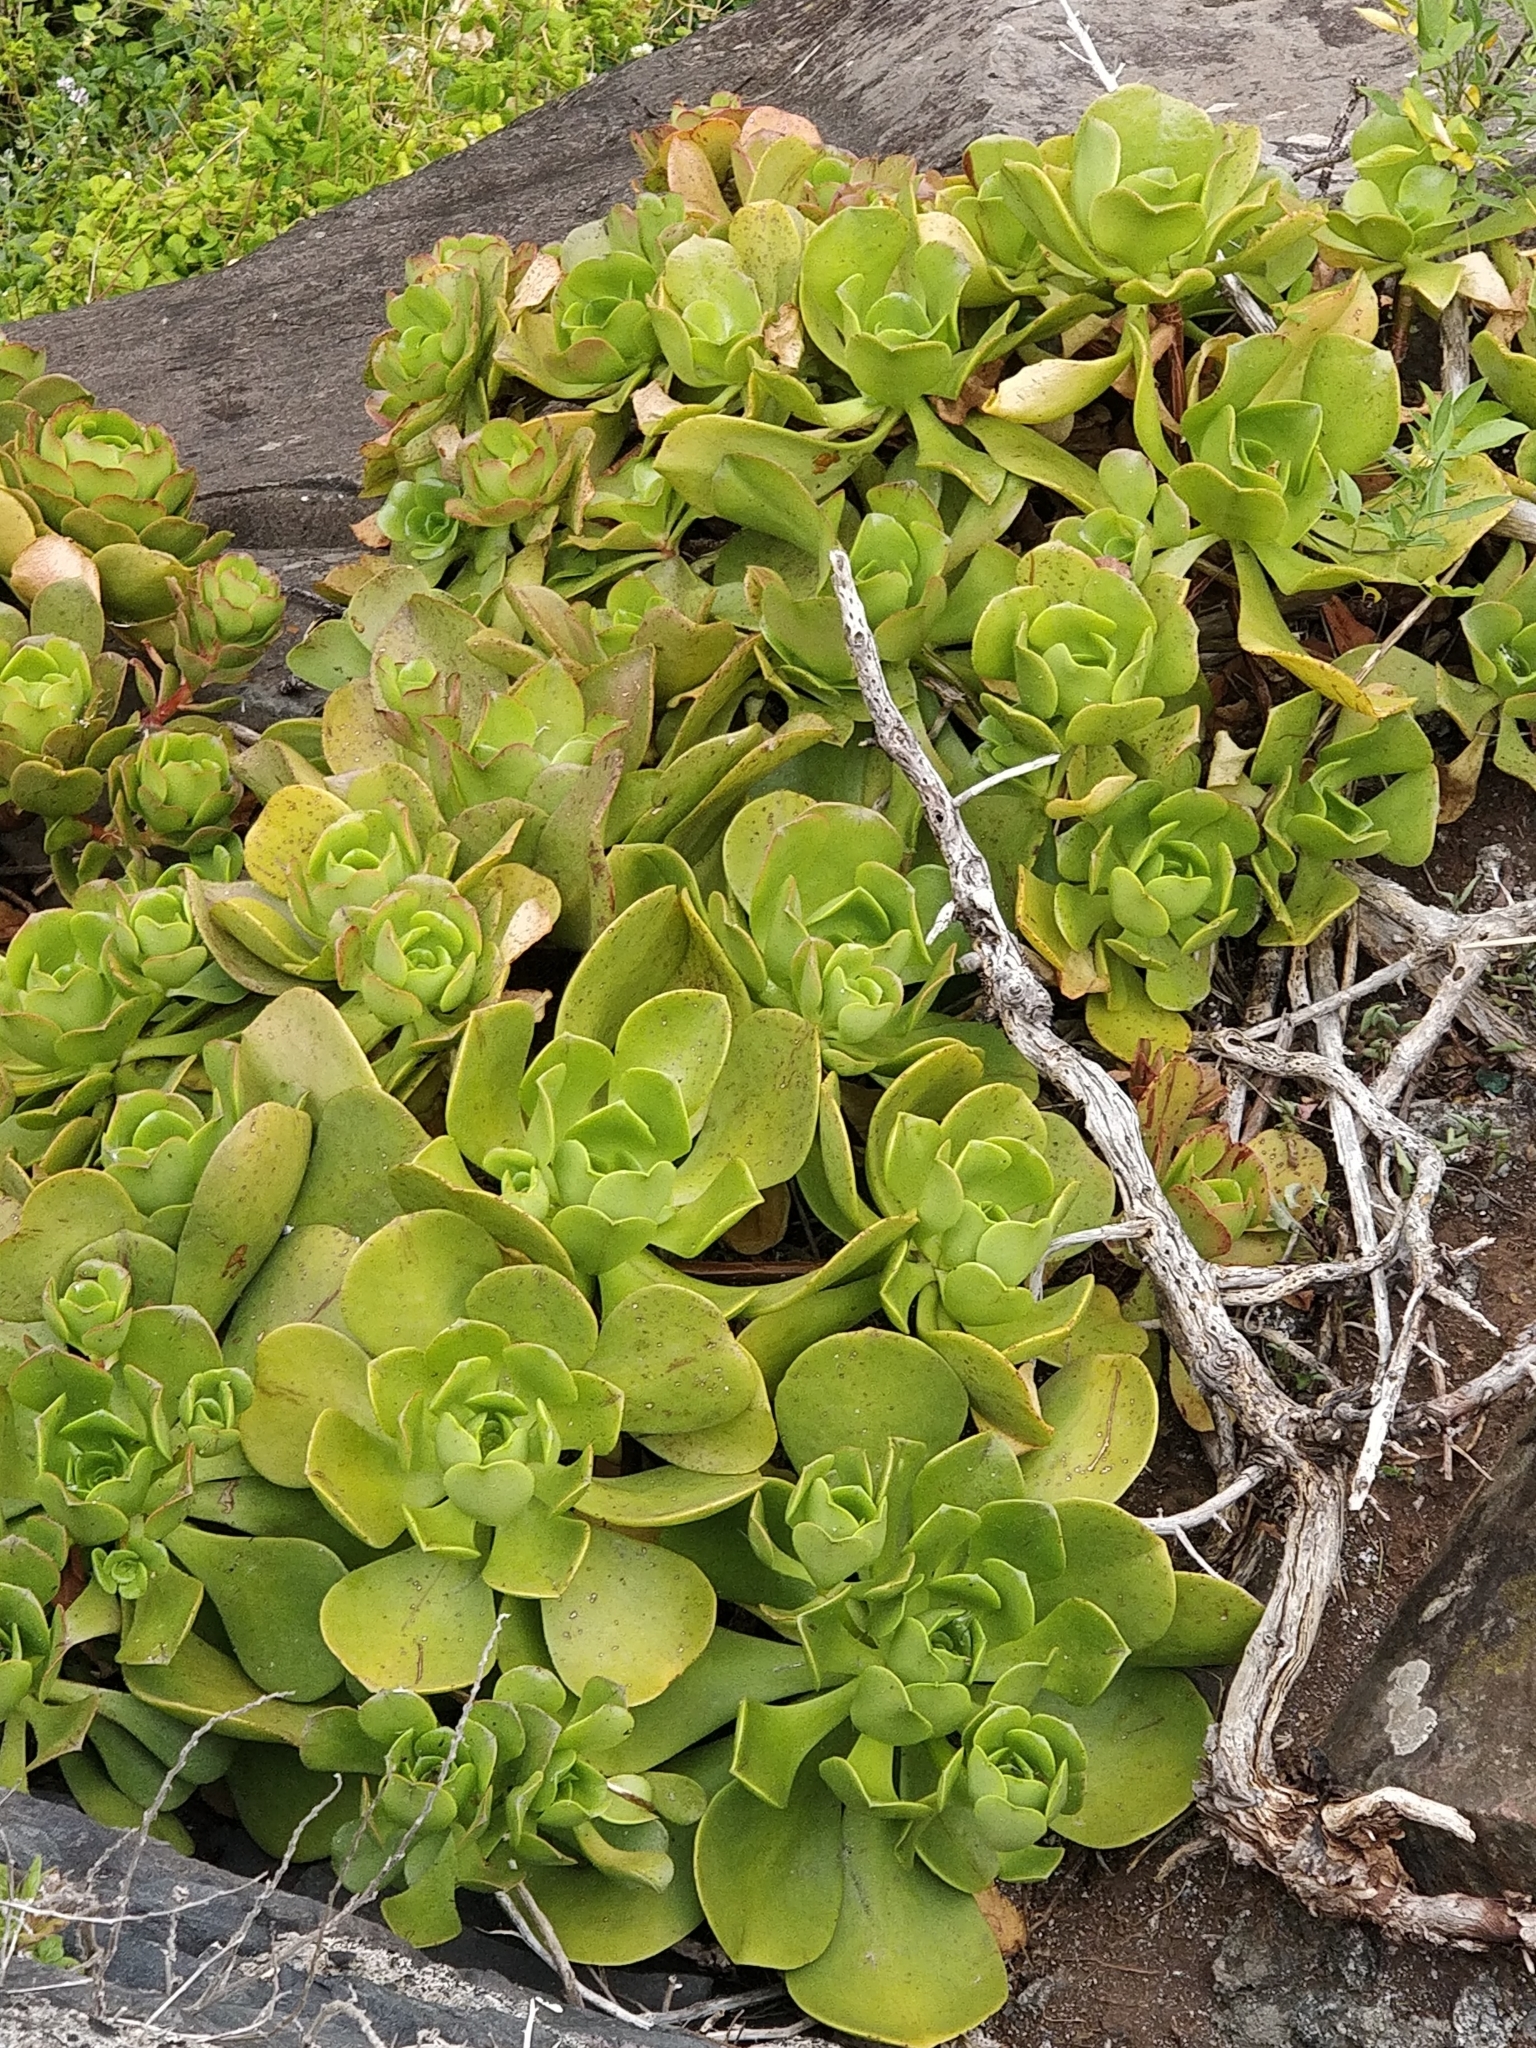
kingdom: Plantae
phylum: Tracheophyta
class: Magnoliopsida
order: Saxifragales
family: Crassulaceae
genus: Aeonium
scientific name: Aeonium glutinosum
